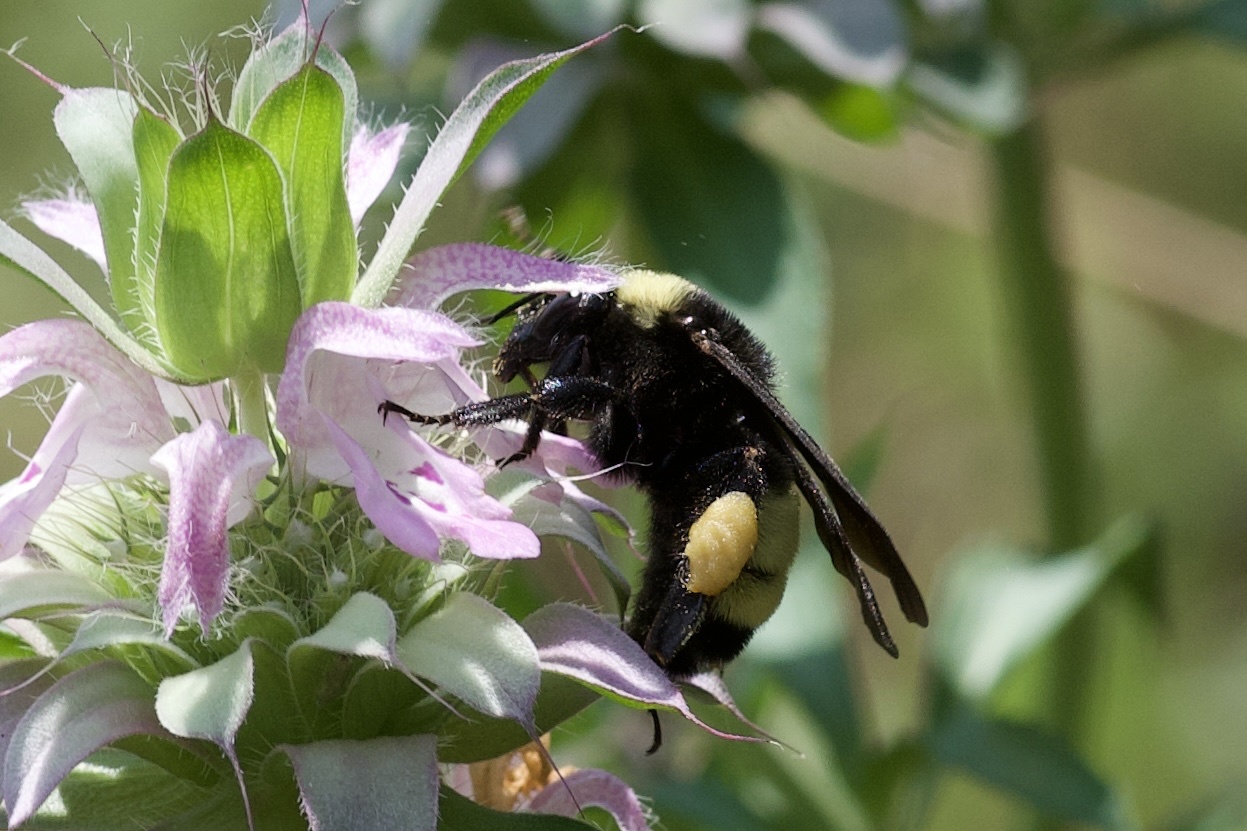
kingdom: Animalia
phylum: Arthropoda
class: Insecta
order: Hymenoptera
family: Apidae
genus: Bombus
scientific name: Bombus pensylvanicus
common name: Bumble bee
